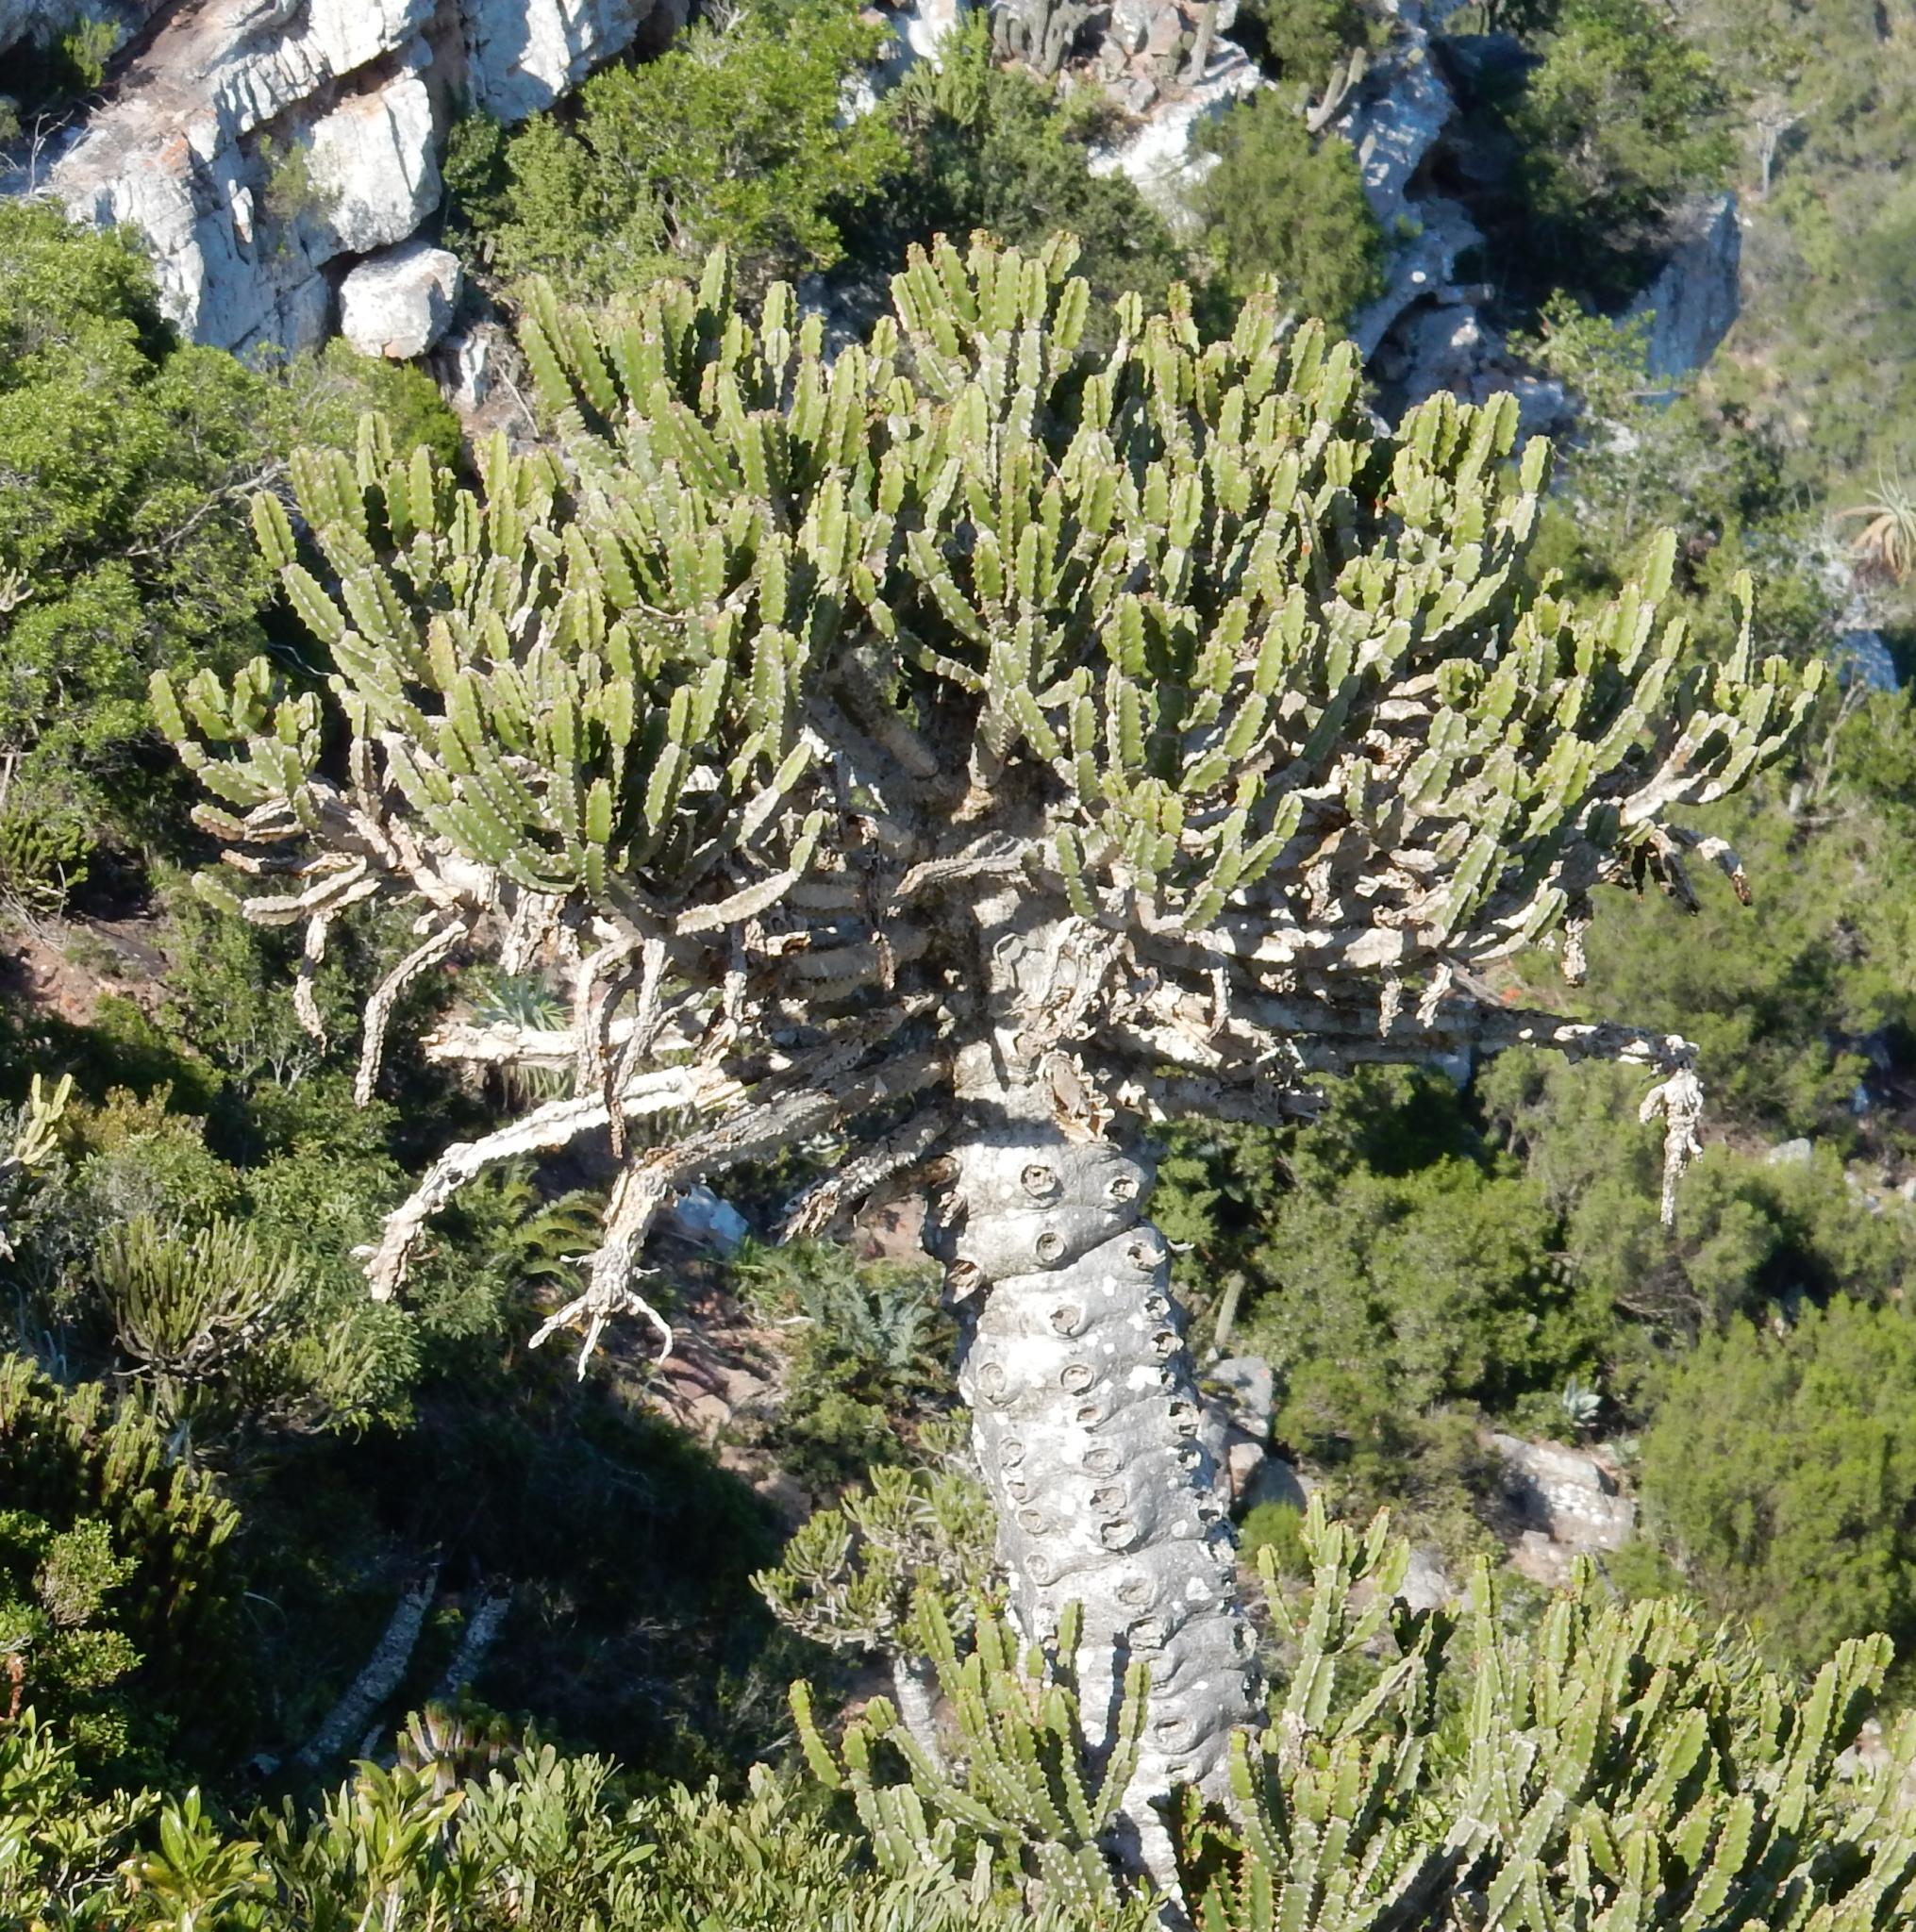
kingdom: Plantae
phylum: Tracheophyta
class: Magnoliopsida
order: Malpighiales
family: Euphorbiaceae
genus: Euphorbia
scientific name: Euphorbia tetragona
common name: Honey euphorbia
